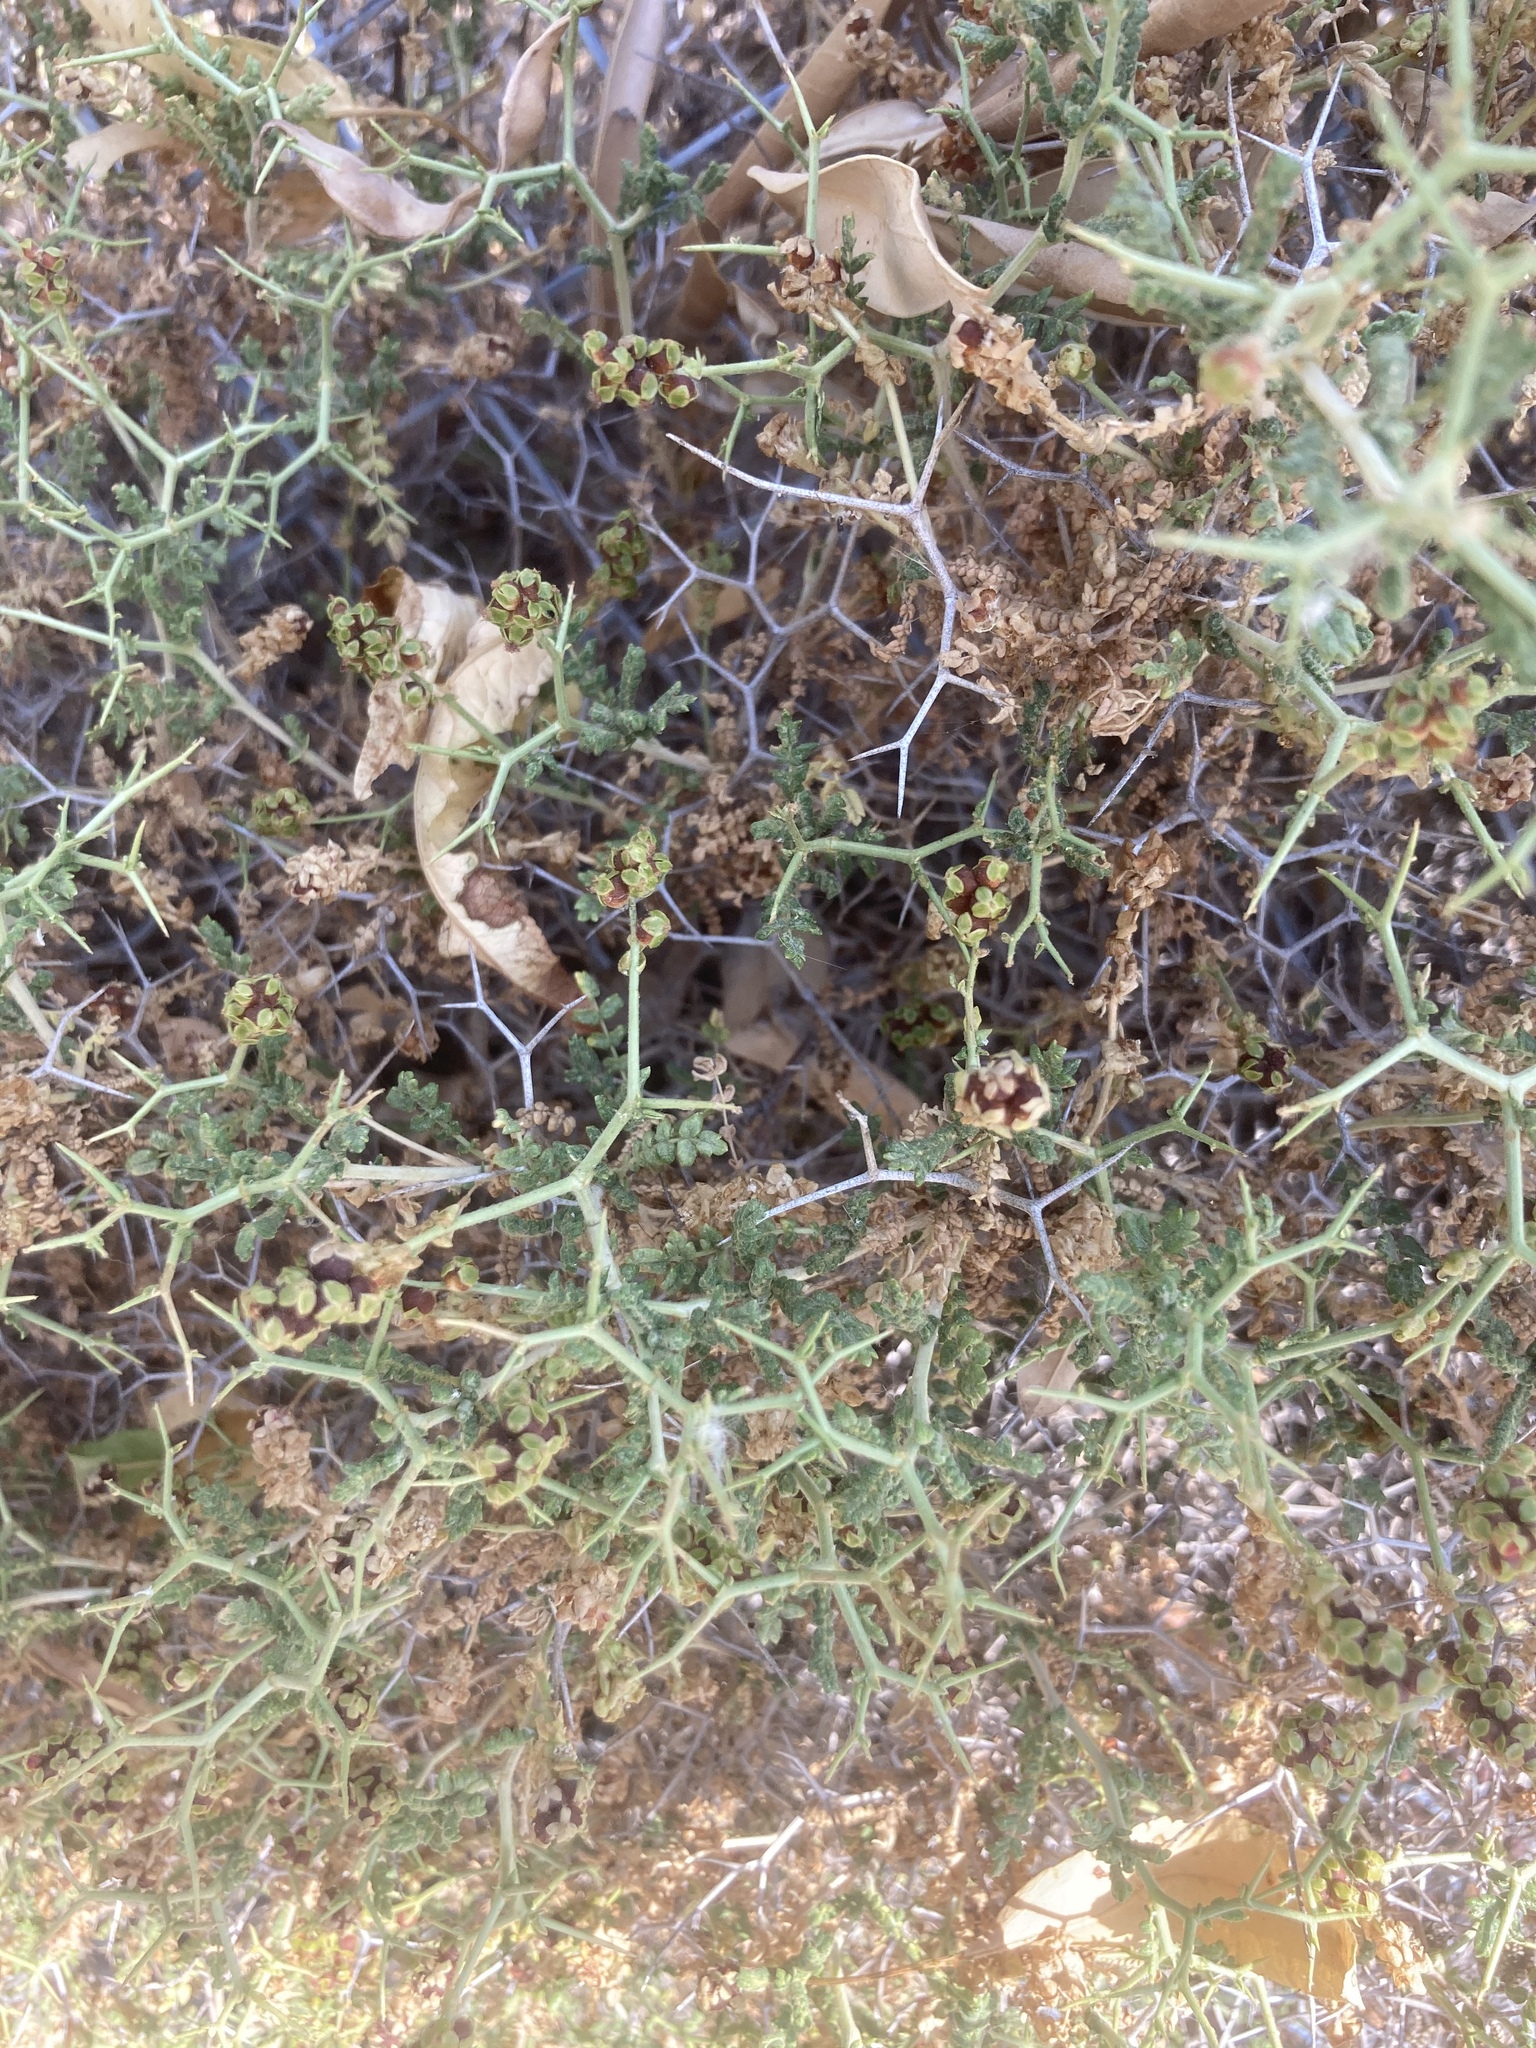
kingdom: Plantae
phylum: Tracheophyta
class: Magnoliopsida
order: Rosales
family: Rosaceae
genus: Sarcopoterium
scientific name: Sarcopoterium spinosum
